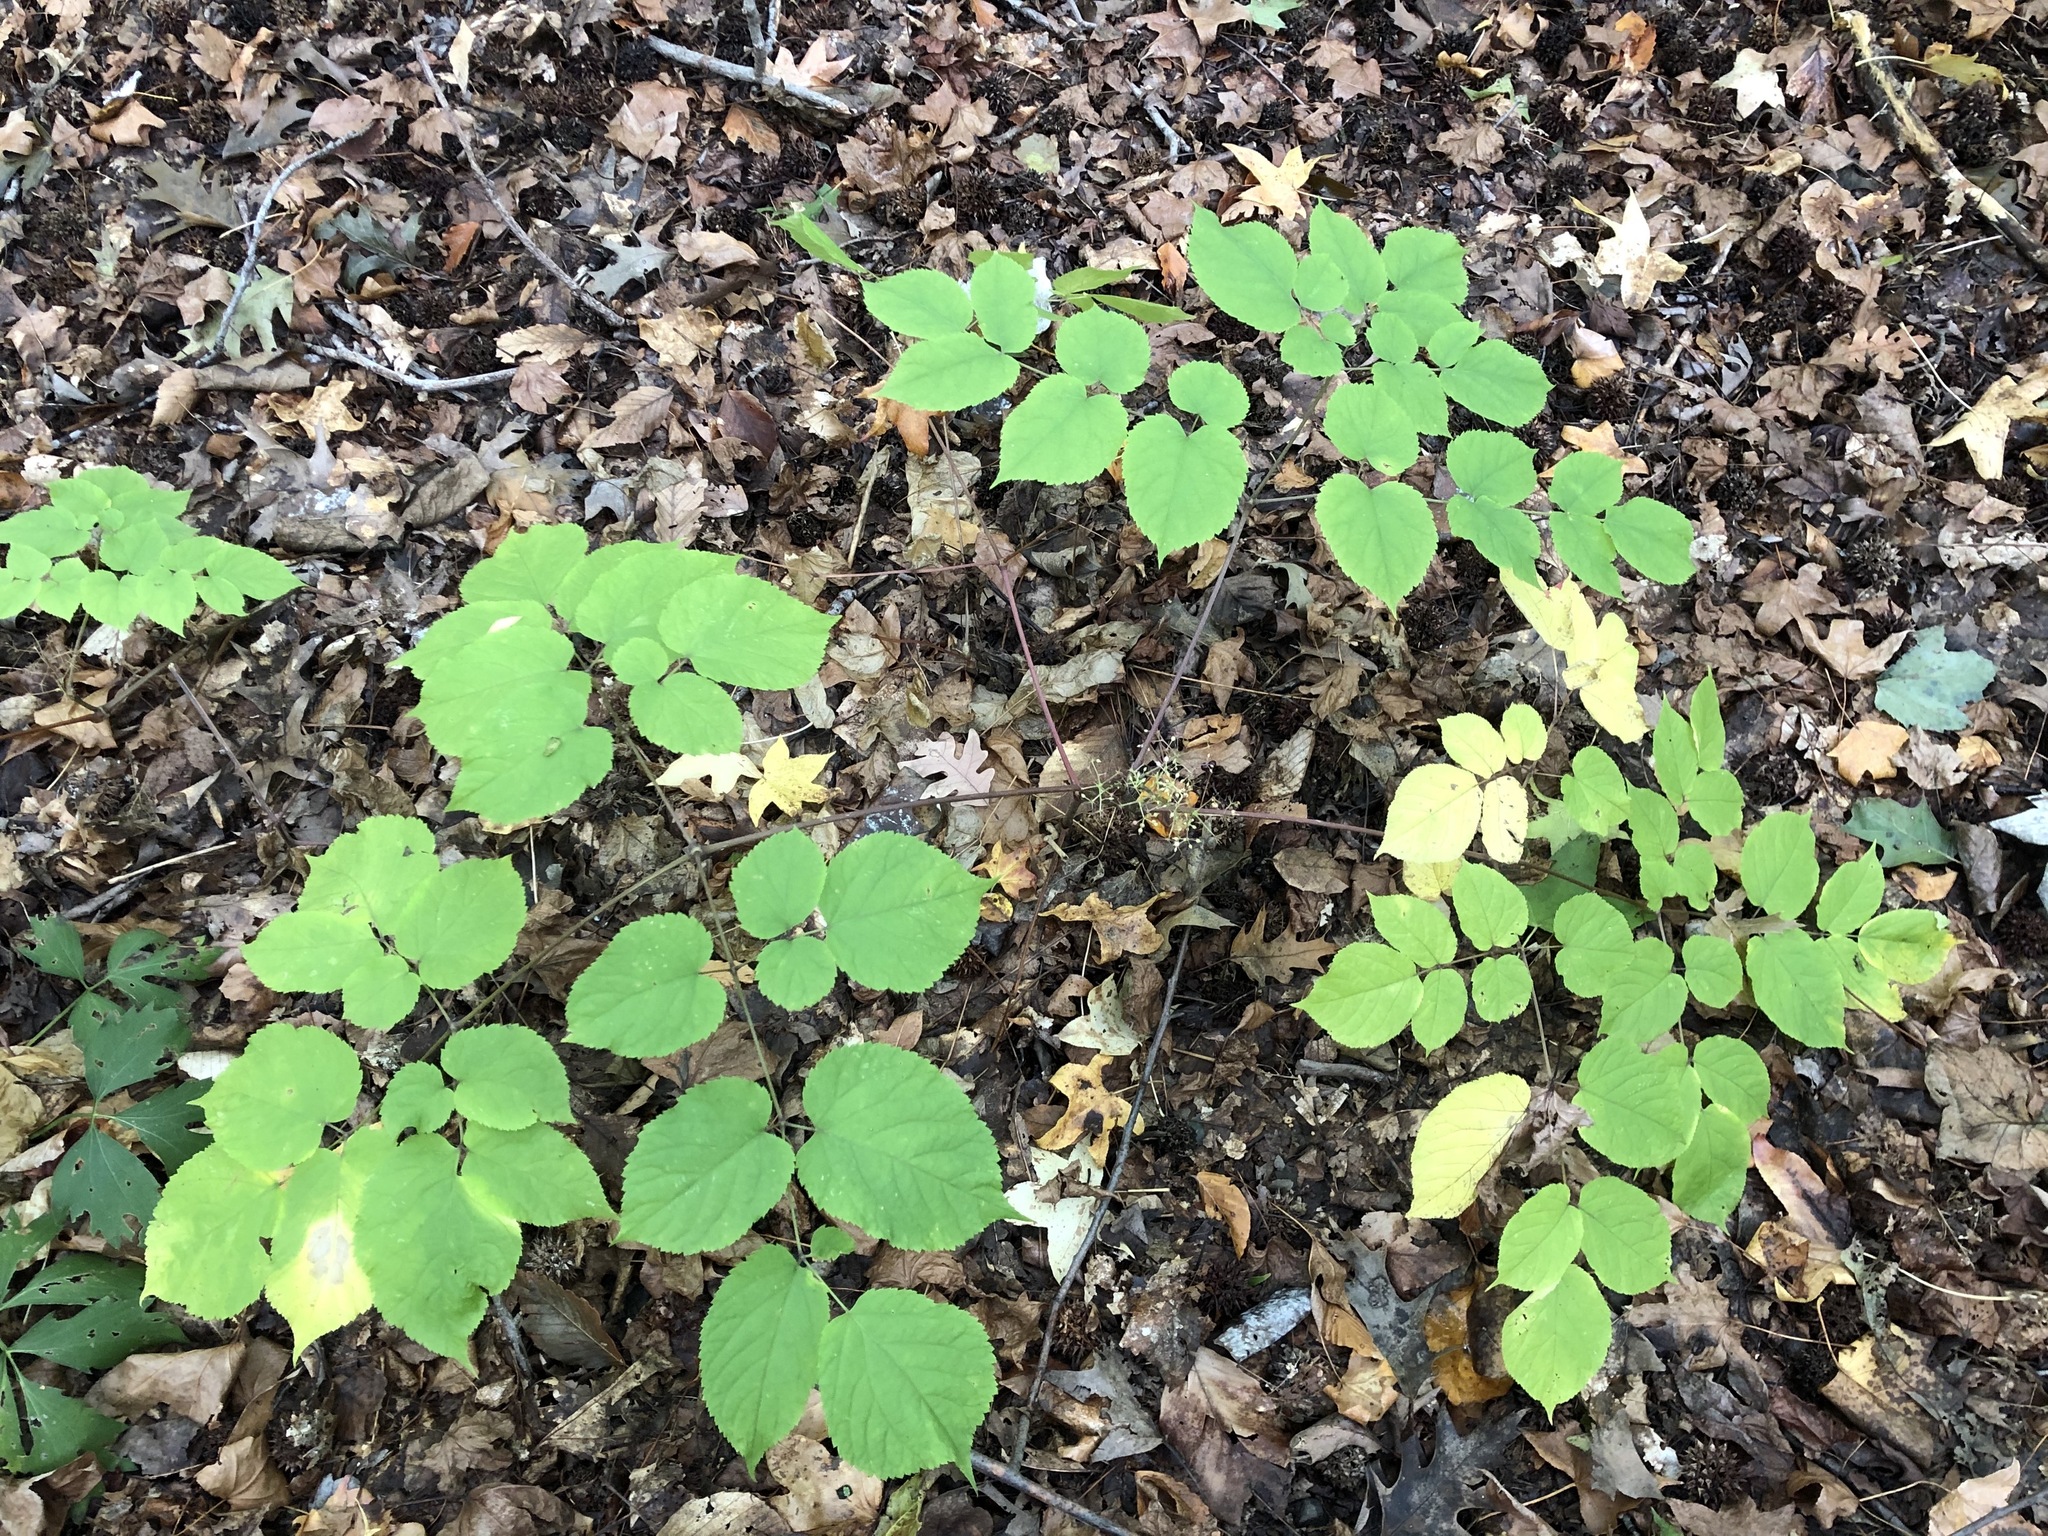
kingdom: Plantae
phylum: Tracheophyta
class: Magnoliopsida
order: Apiales
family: Araliaceae
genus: Aralia
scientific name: Aralia racemosa
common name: American-spikenard
